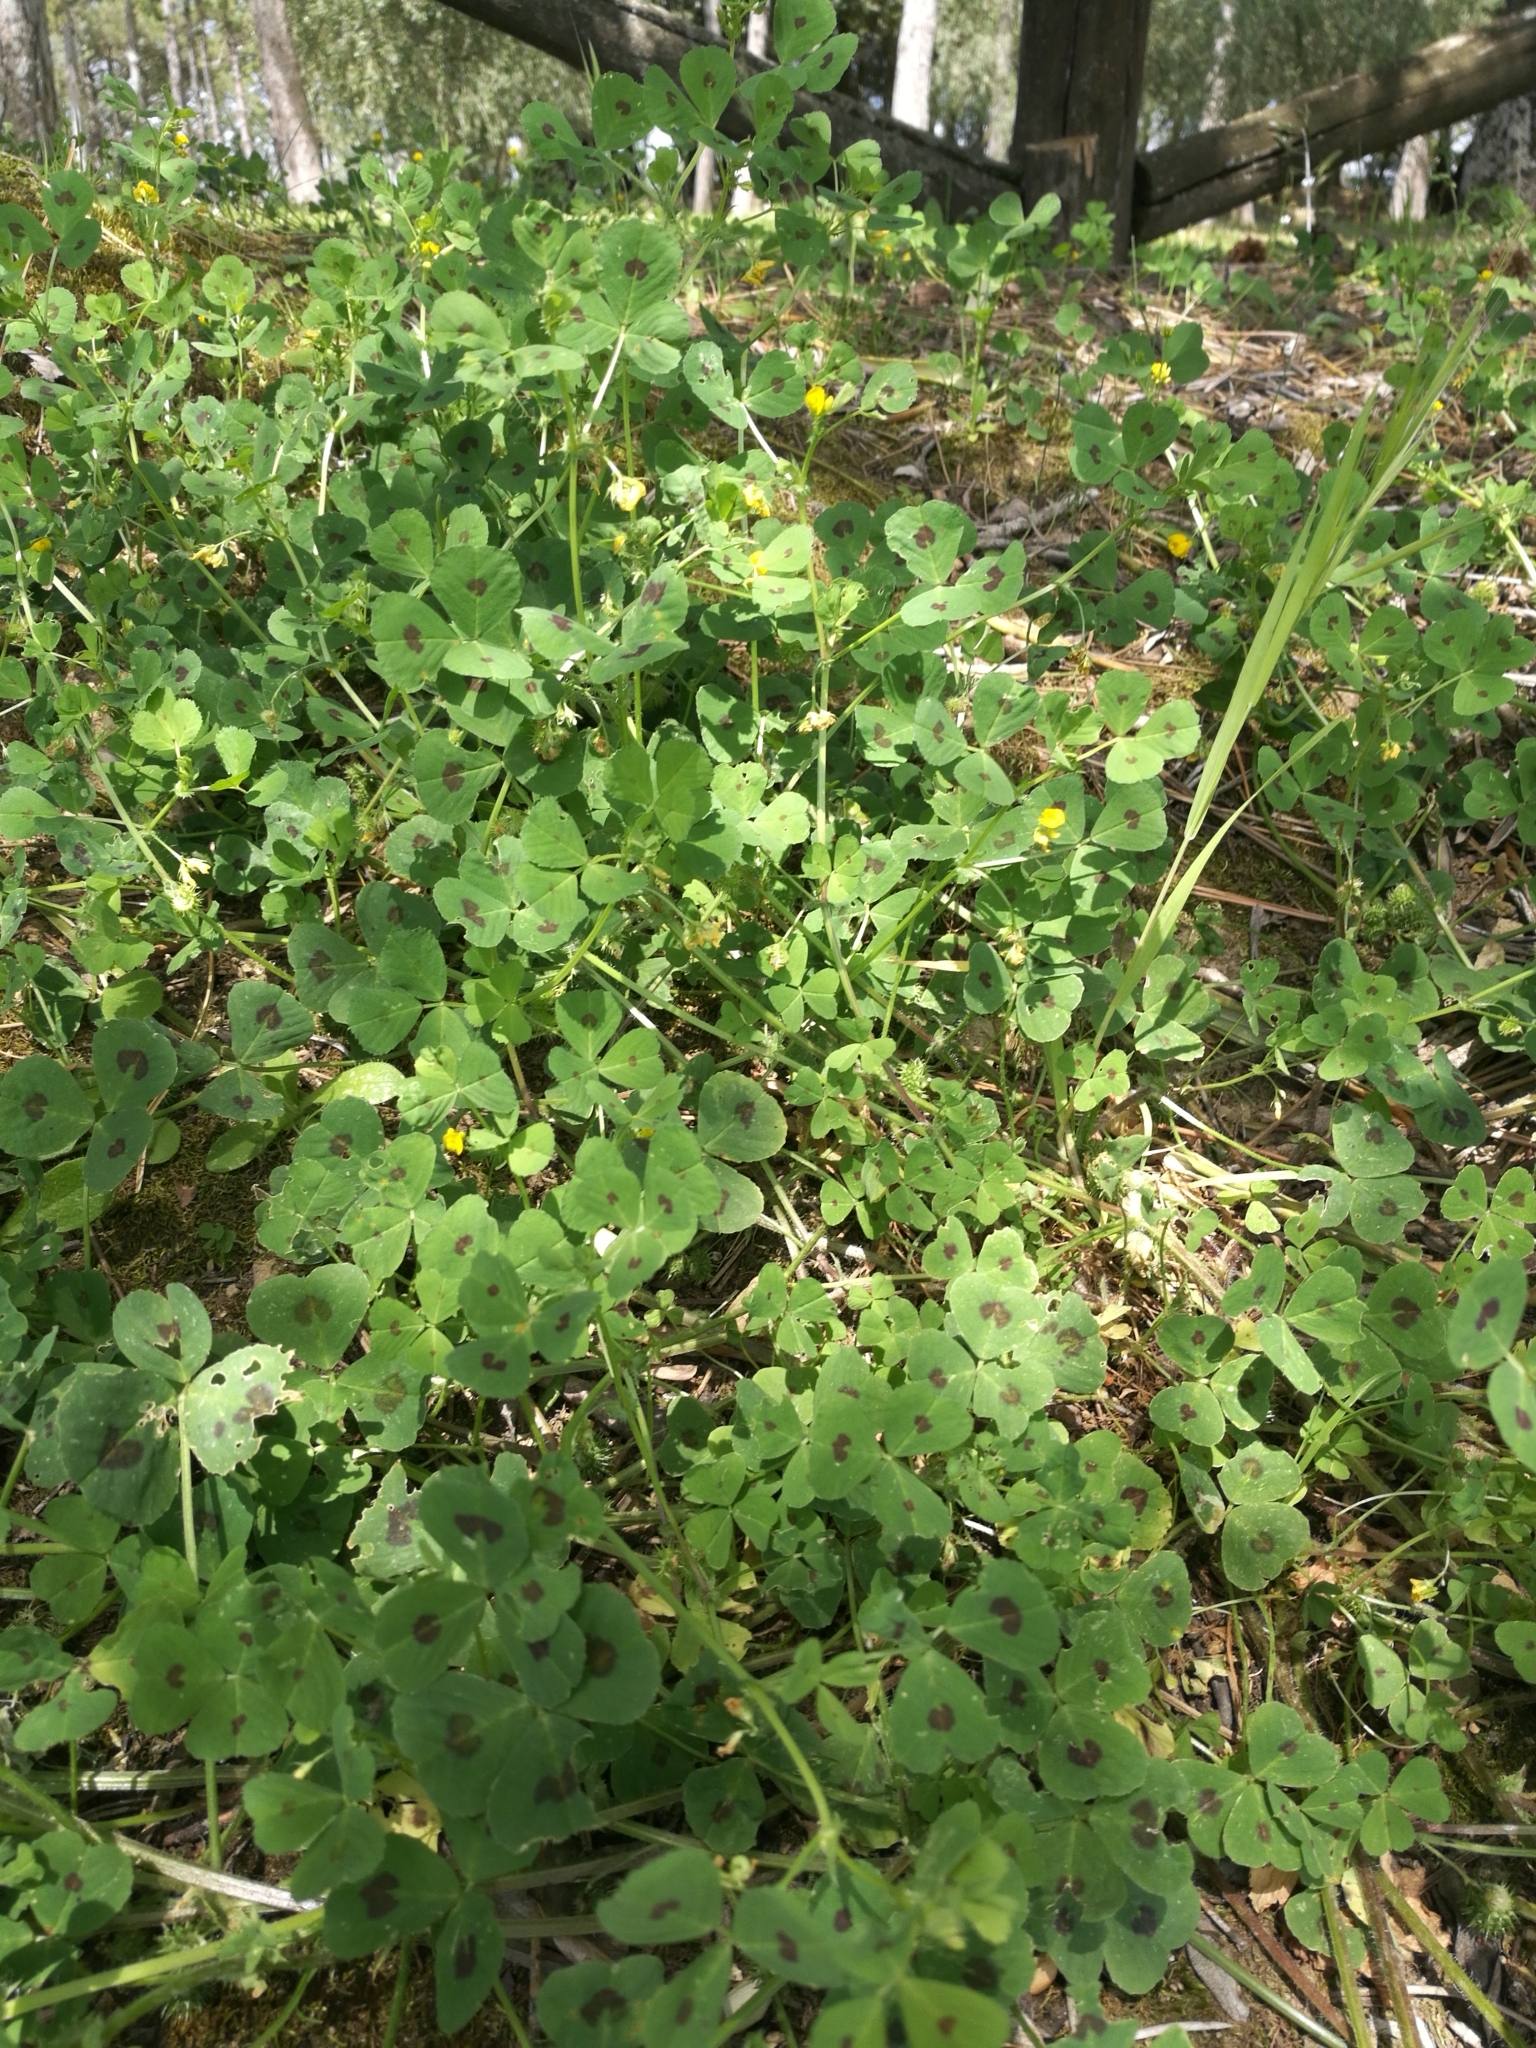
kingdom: Plantae
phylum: Tracheophyta
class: Magnoliopsida
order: Fabales
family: Fabaceae
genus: Medicago
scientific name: Medicago arabica
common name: Spotted medick
